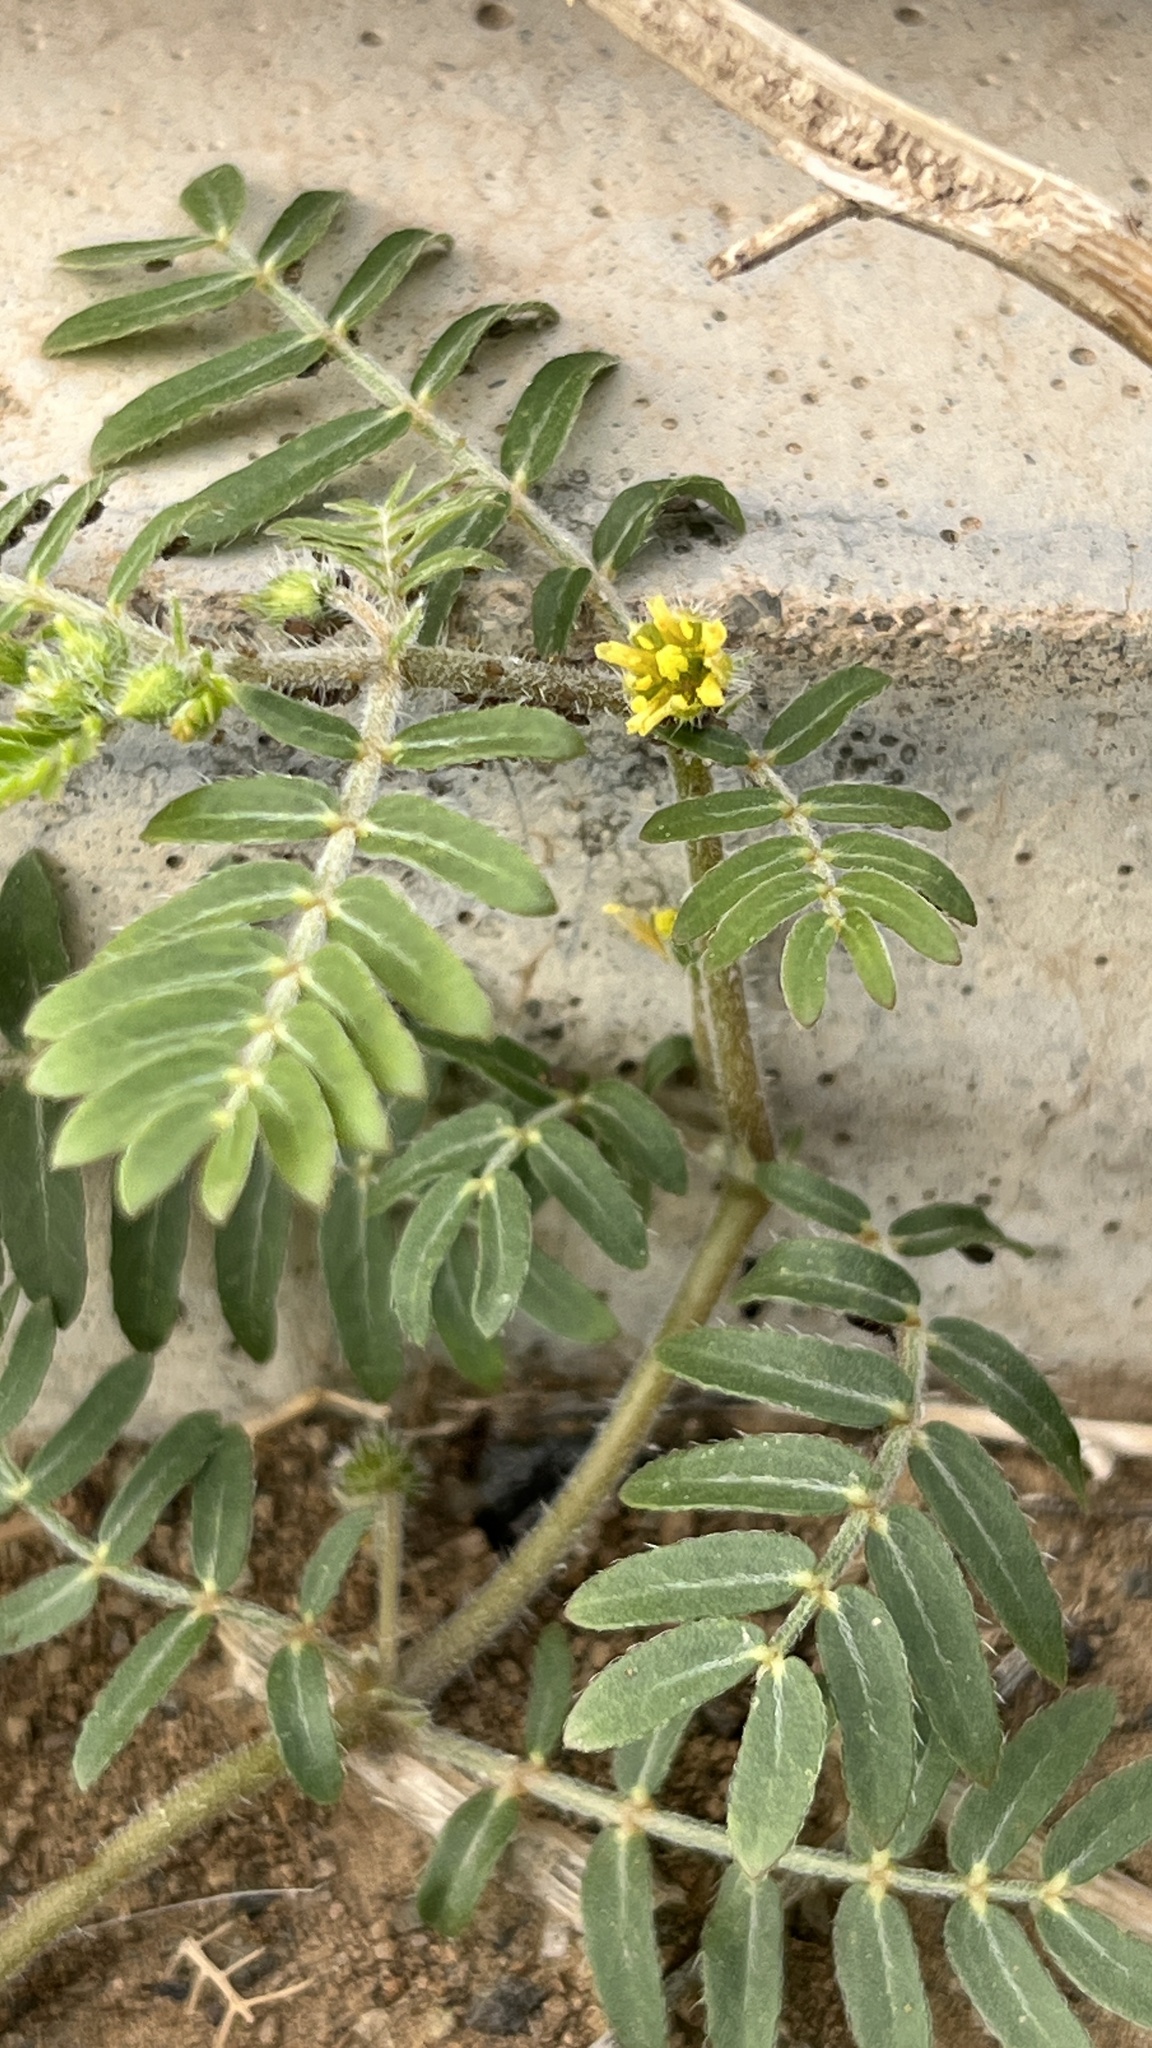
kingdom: Plantae
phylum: Tracheophyta
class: Magnoliopsida
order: Zygophyllales
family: Zygophyllaceae
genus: Tribulus
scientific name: Tribulus terrestris
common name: Puncturevine
